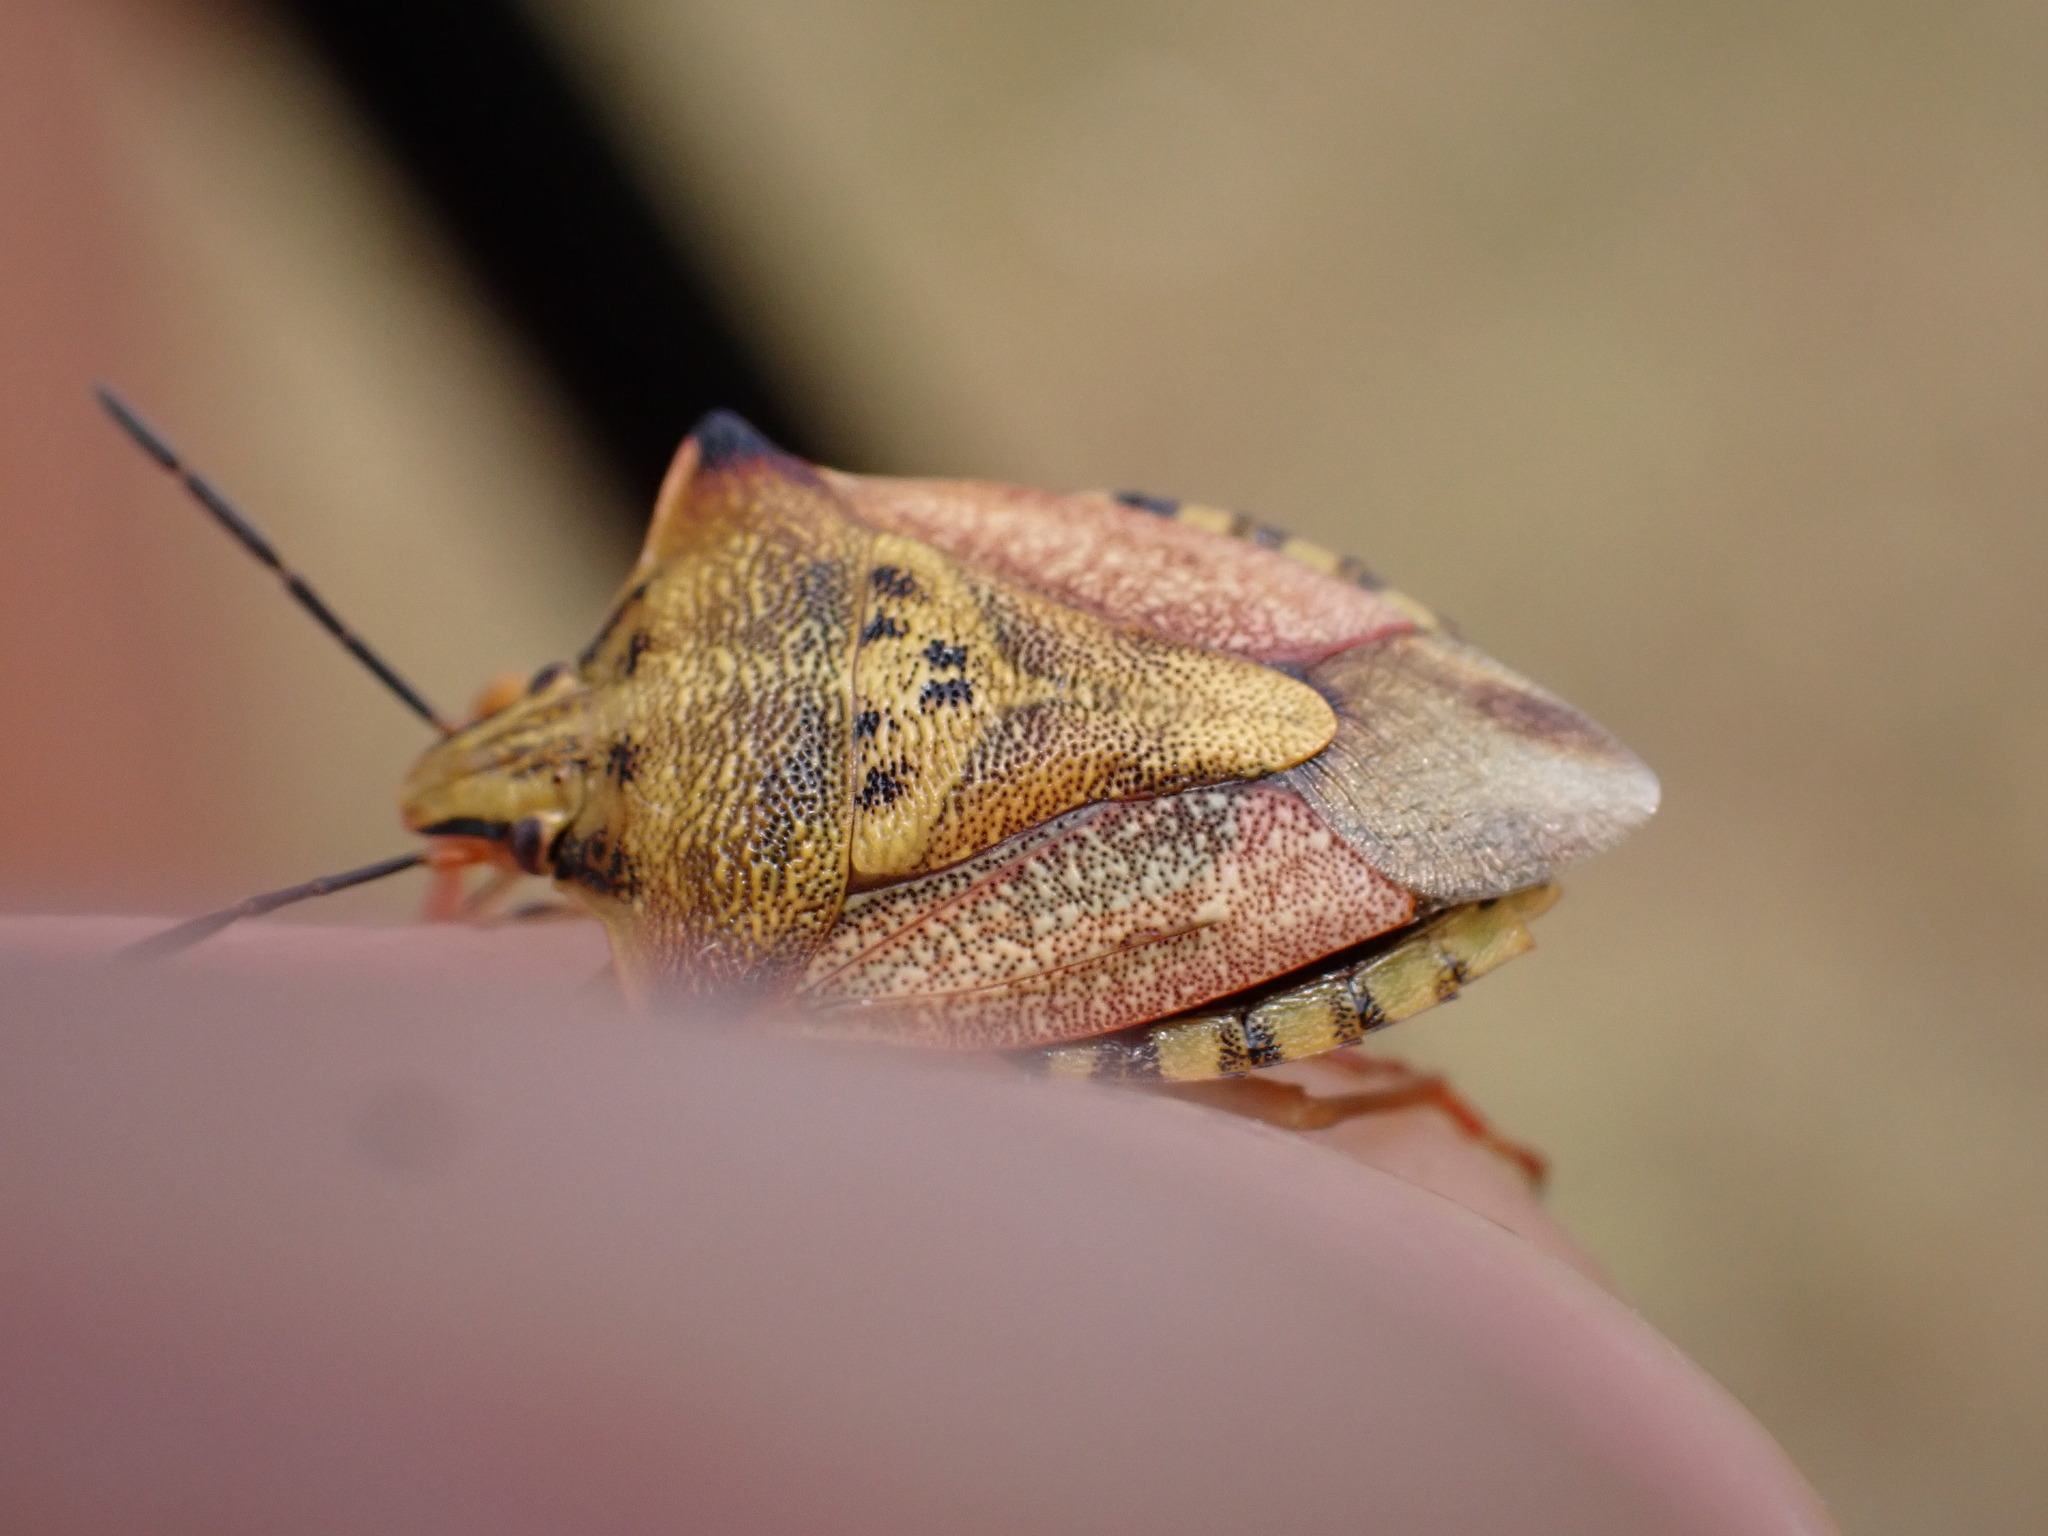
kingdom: Animalia
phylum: Arthropoda
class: Insecta
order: Hemiptera
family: Pentatomidae
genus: Carpocoris
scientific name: Carpocoris mediterraneus
